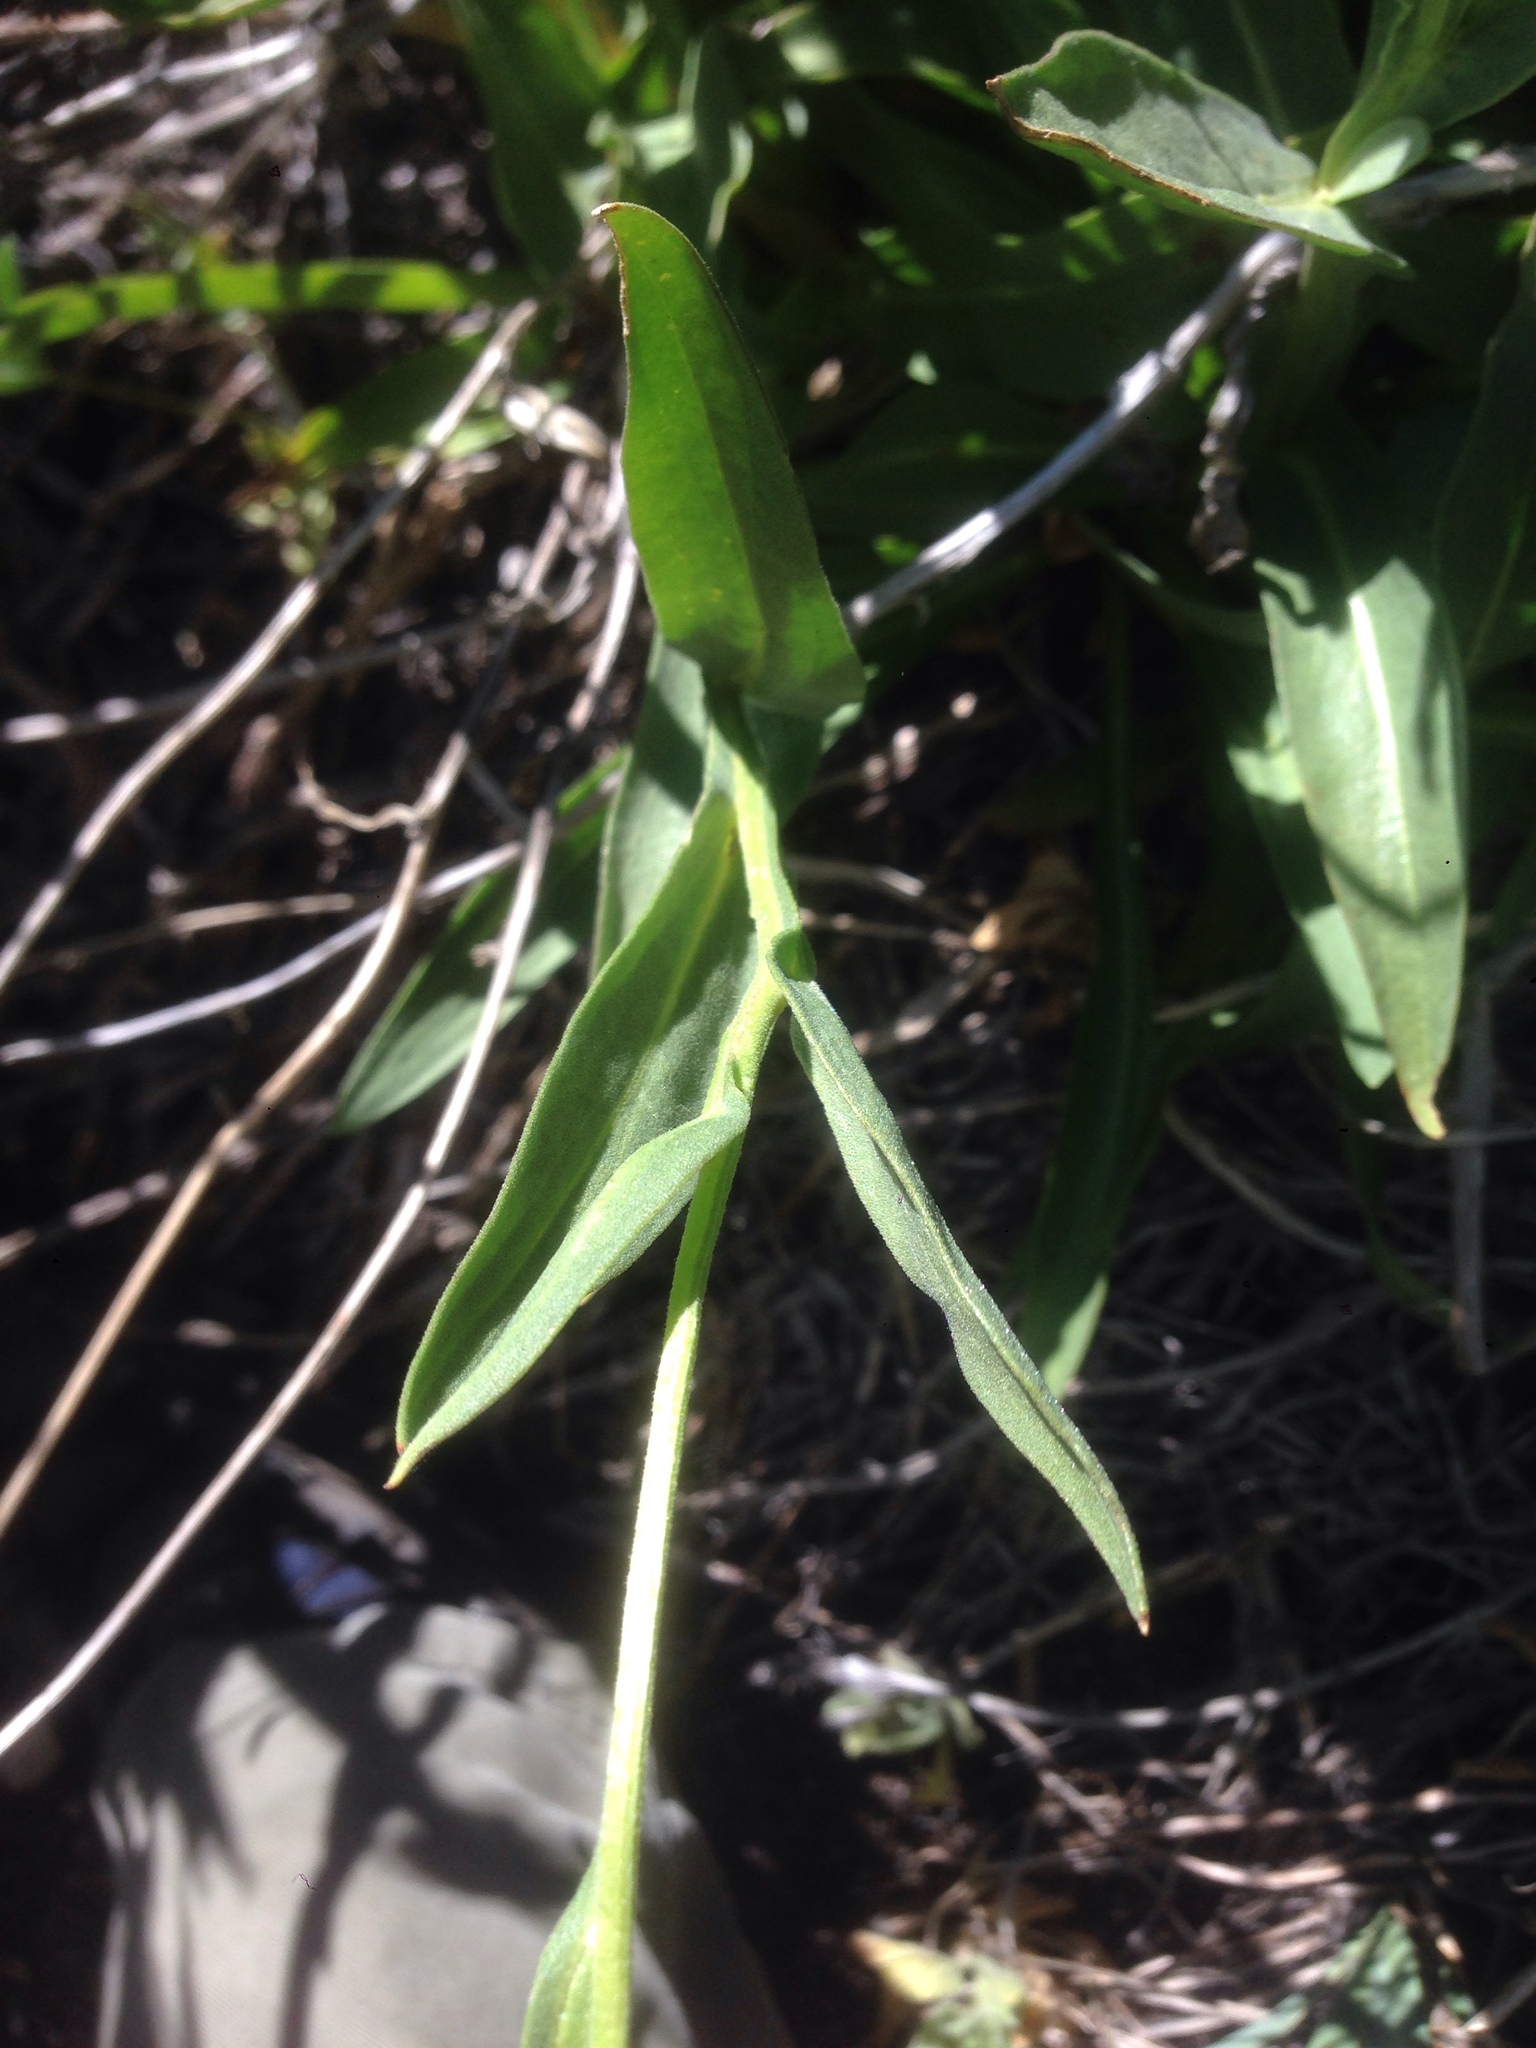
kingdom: Plantae
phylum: Tracheophyta
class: Magnoliopsida
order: Asterales
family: Asteraceae
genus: Helenium
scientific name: Helenium bigelovii
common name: Bigelow's sneezeweed
